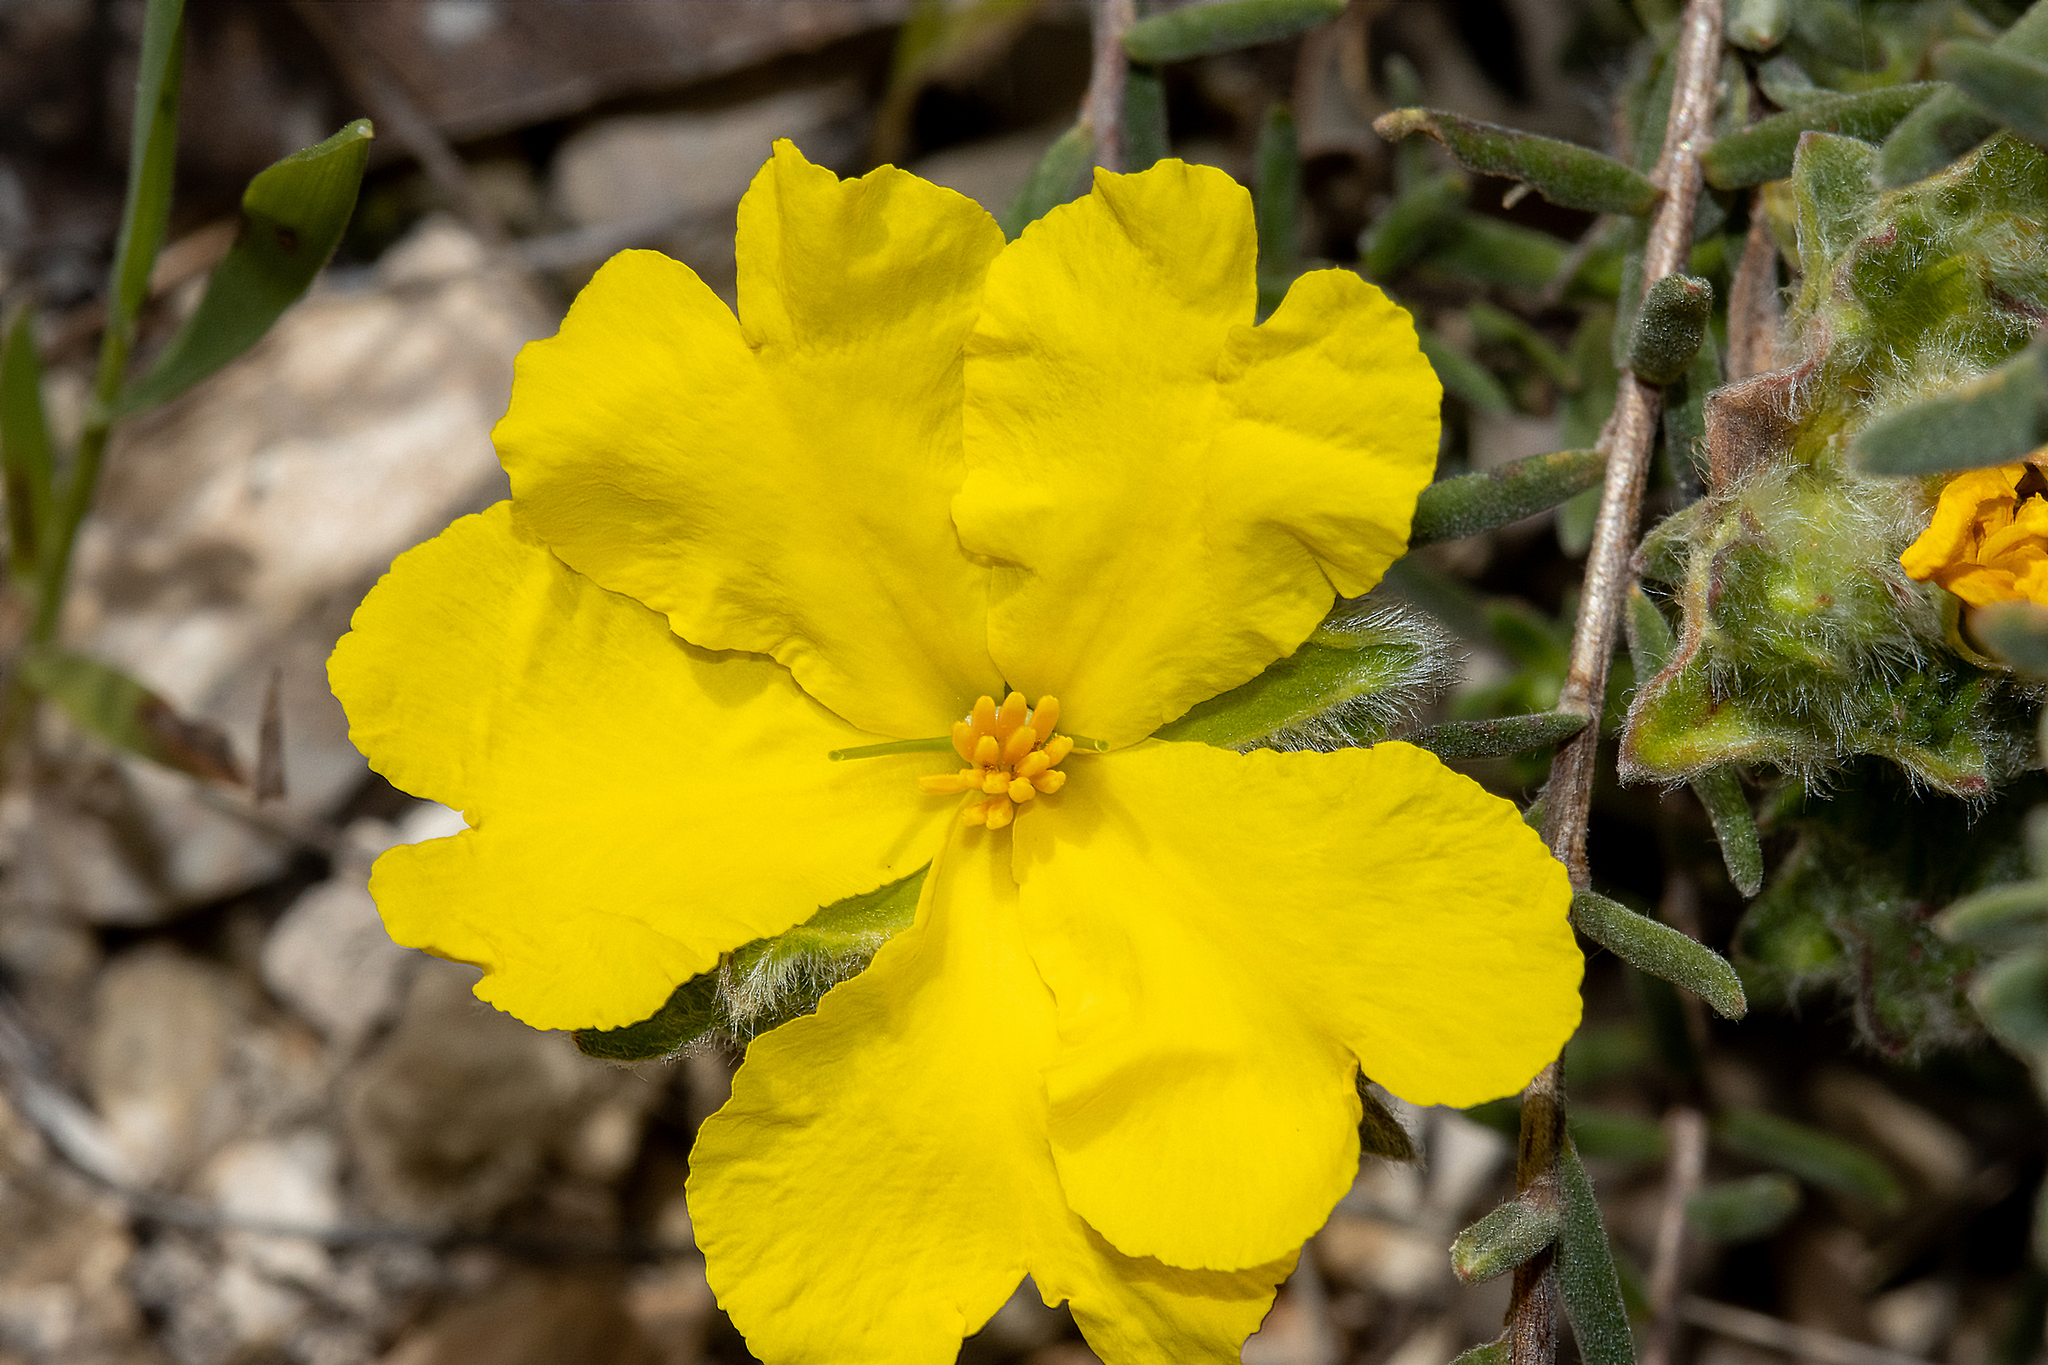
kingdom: Plantae
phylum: Tracheophyta
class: Magnoliopsida
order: Dilleniales
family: Dilleniaceae
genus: Hibbertia
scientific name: Hibbertia crinita
